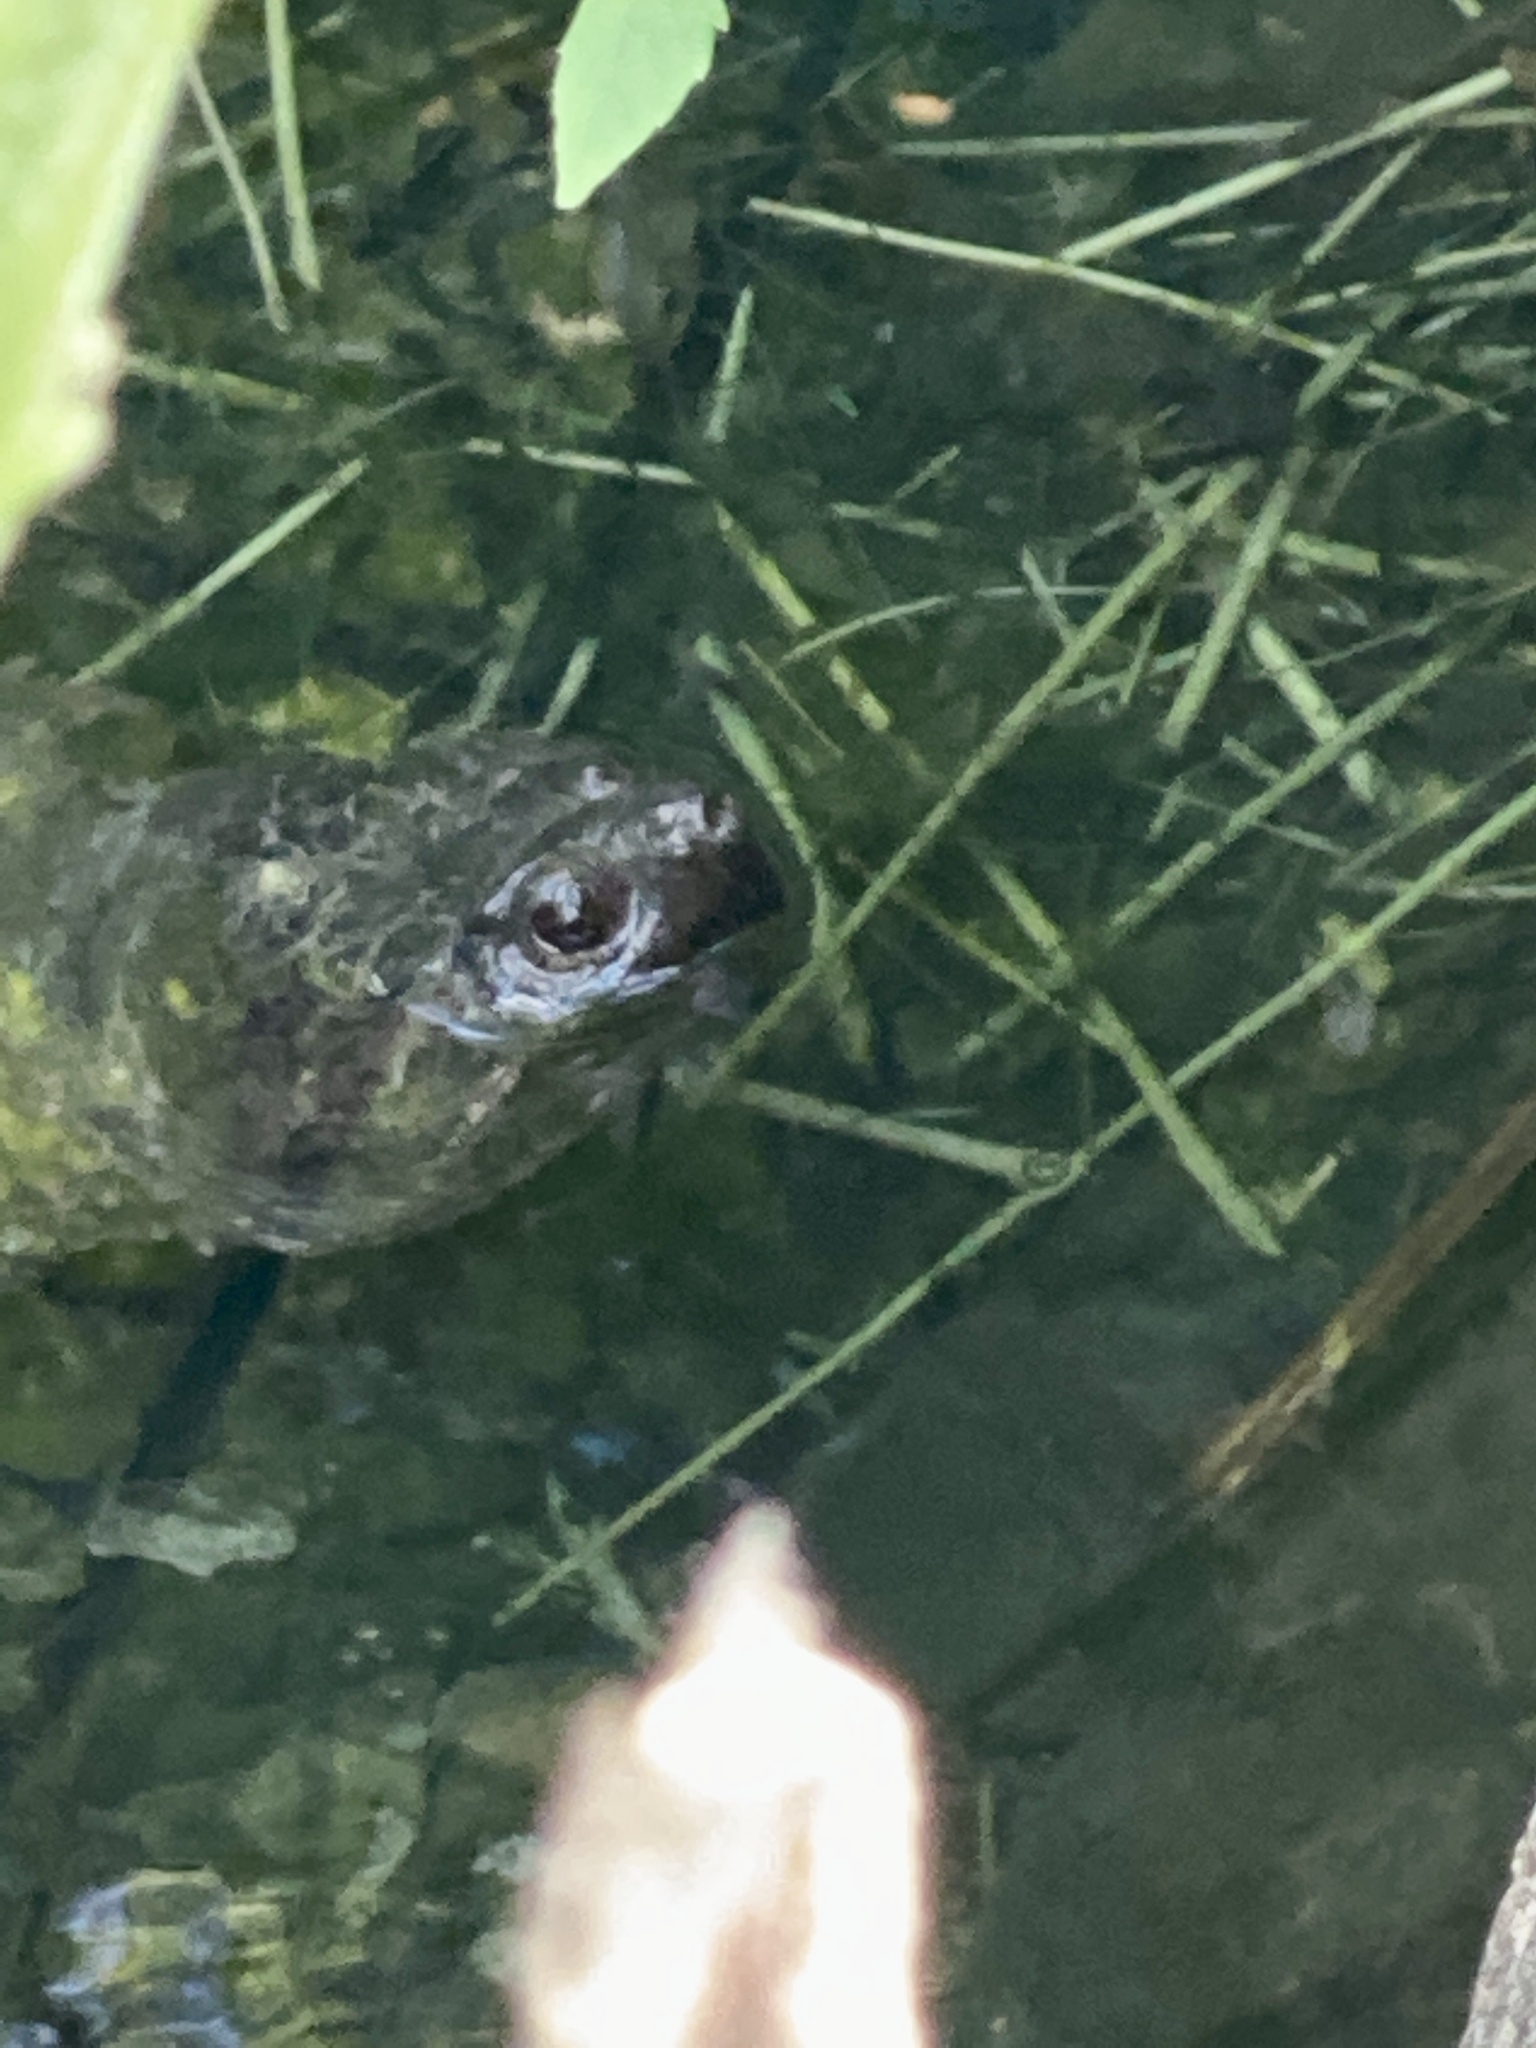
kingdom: Animalia
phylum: Chordata
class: Testudines
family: Chelydridae
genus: Chelydra
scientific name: Chelydra serpentina
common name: Common snapping turtle
